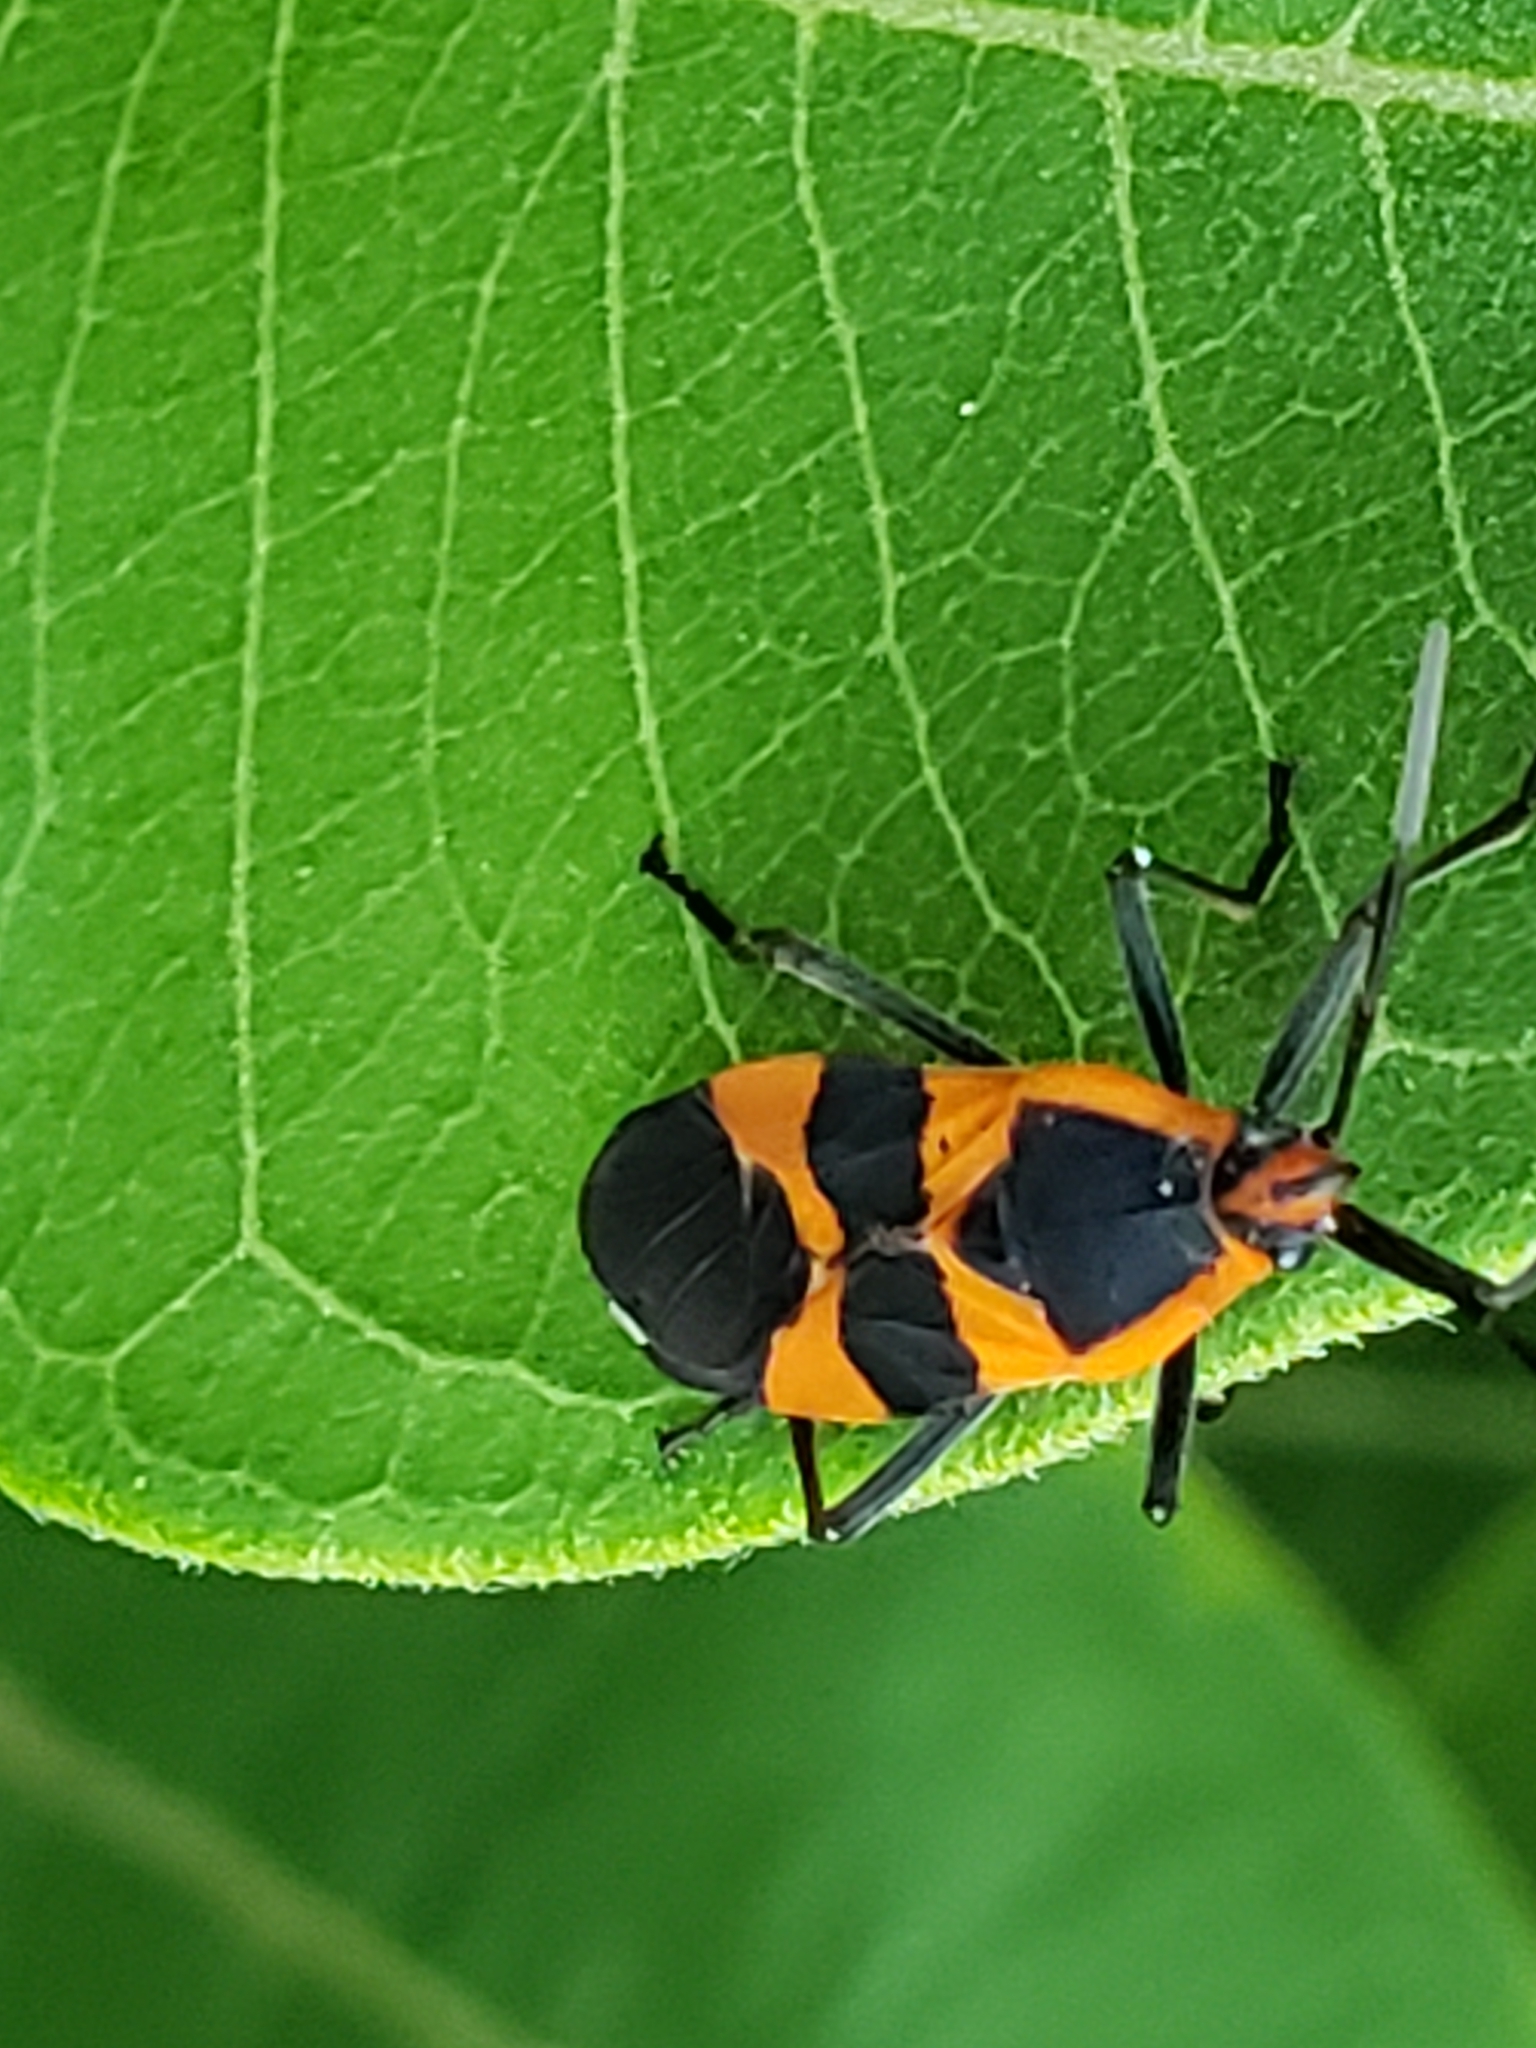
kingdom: Animalia
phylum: Arthropoda
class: Insecta
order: Hemiptera
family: Lygaeidae
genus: Oncopeltus
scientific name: Oncopeltus fasciatus
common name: Large milkweed bug
